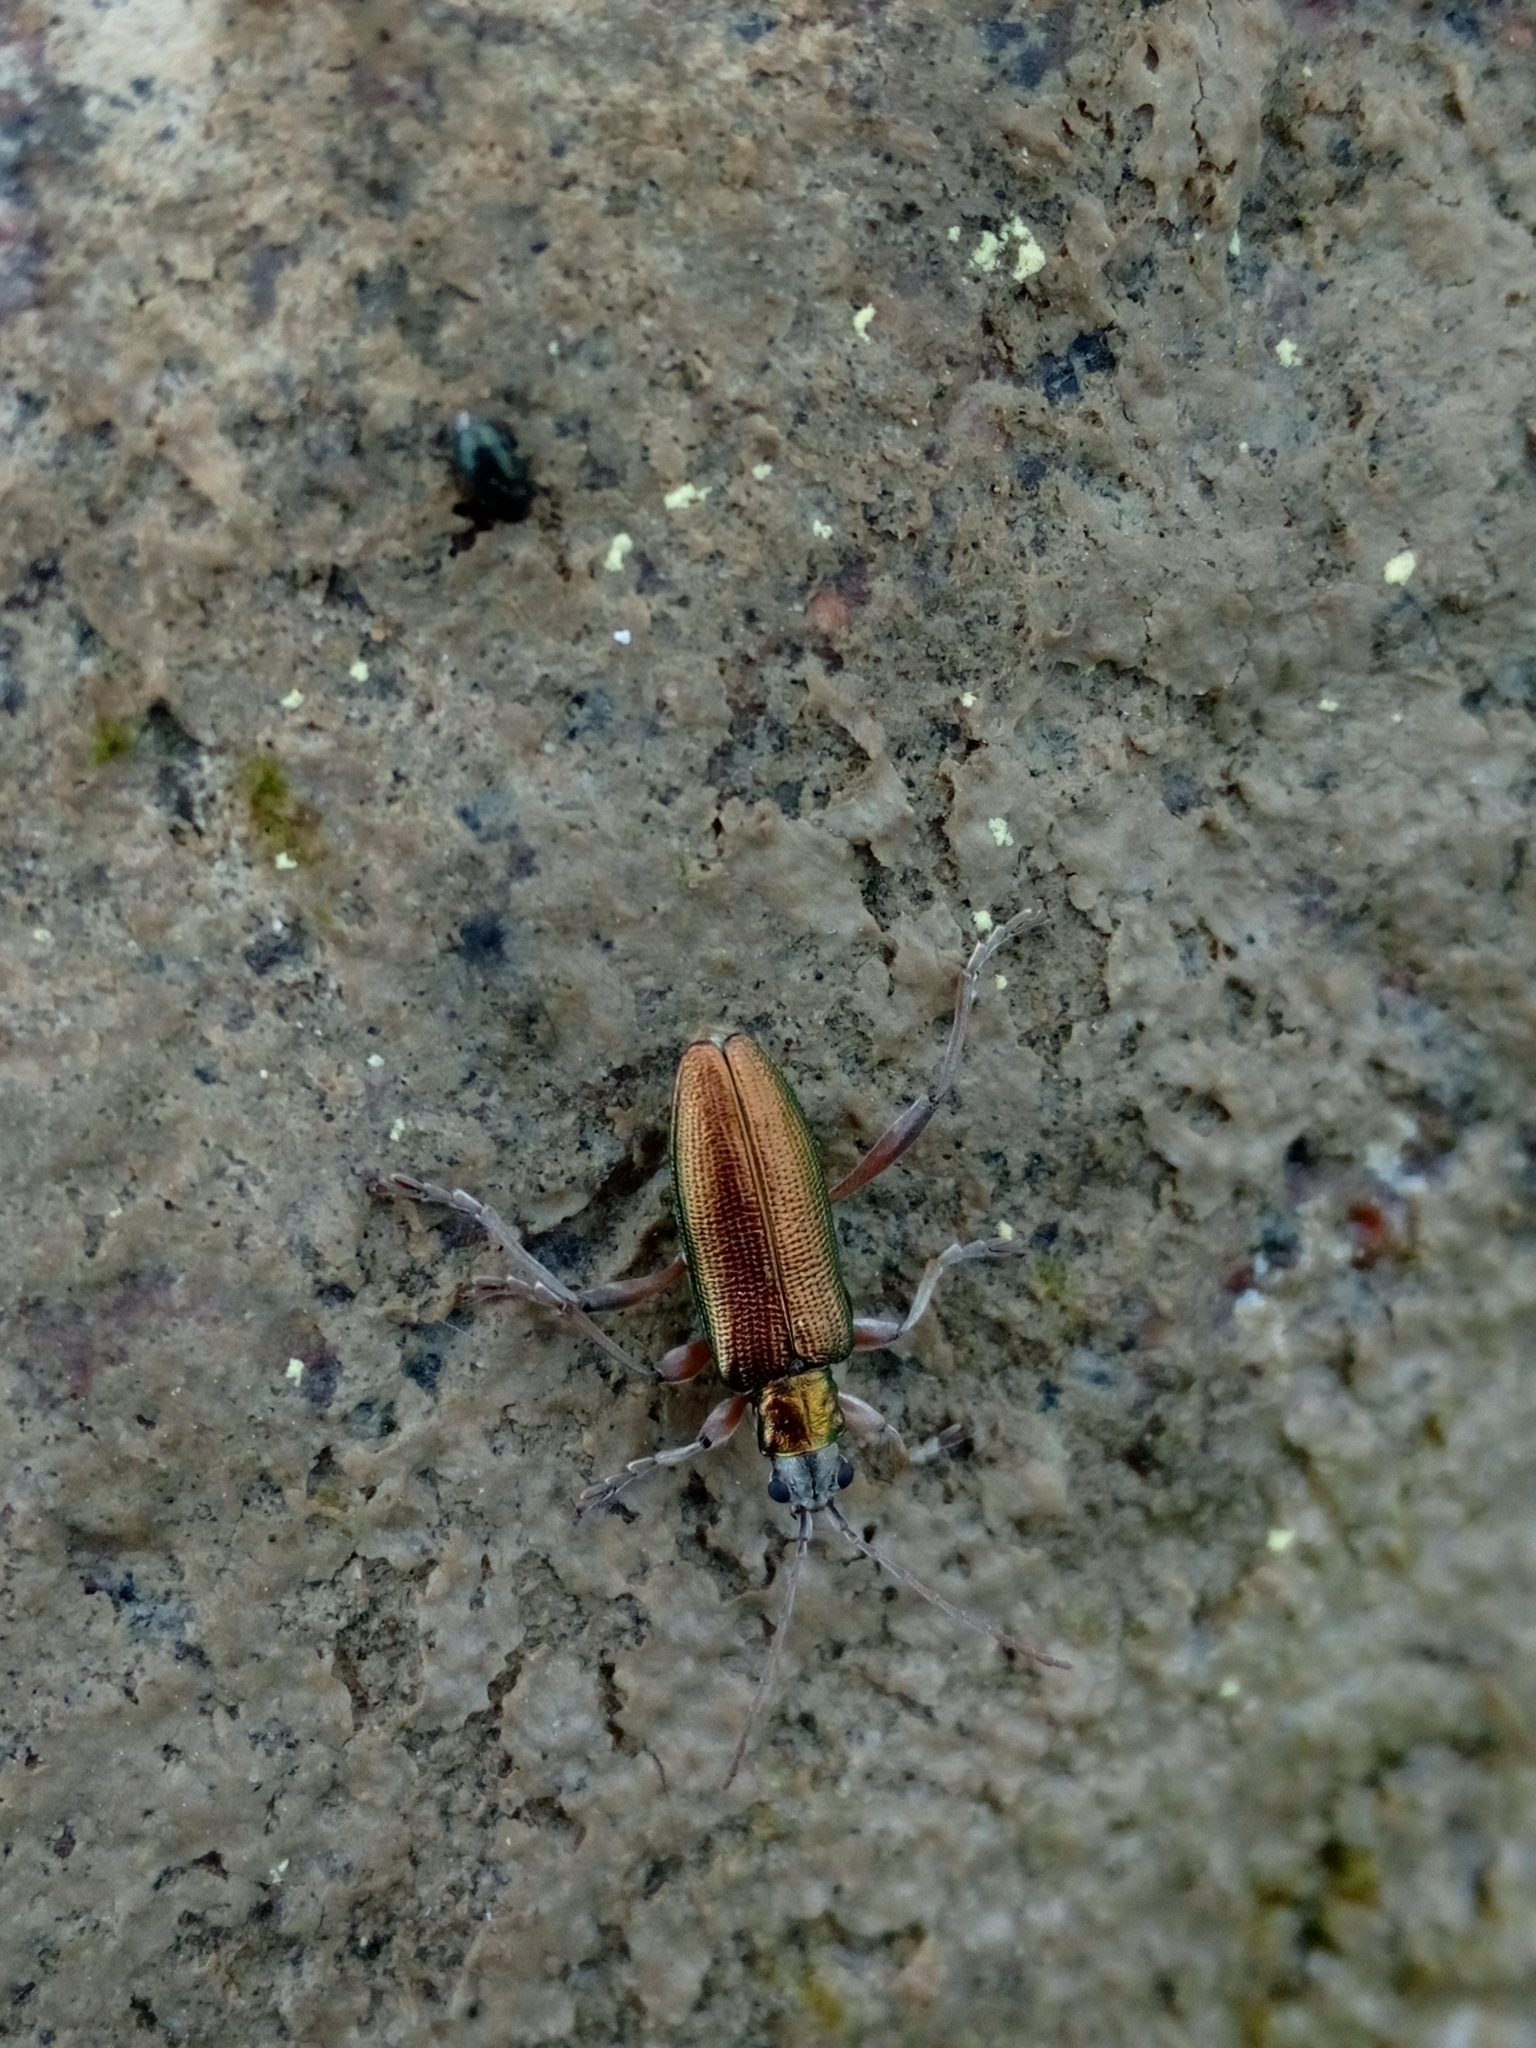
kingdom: Animalia
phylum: Arthropoda
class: Insecta
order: Coleoptera
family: Chrysomelidae
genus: Donacia
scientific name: Donacia clavipes
